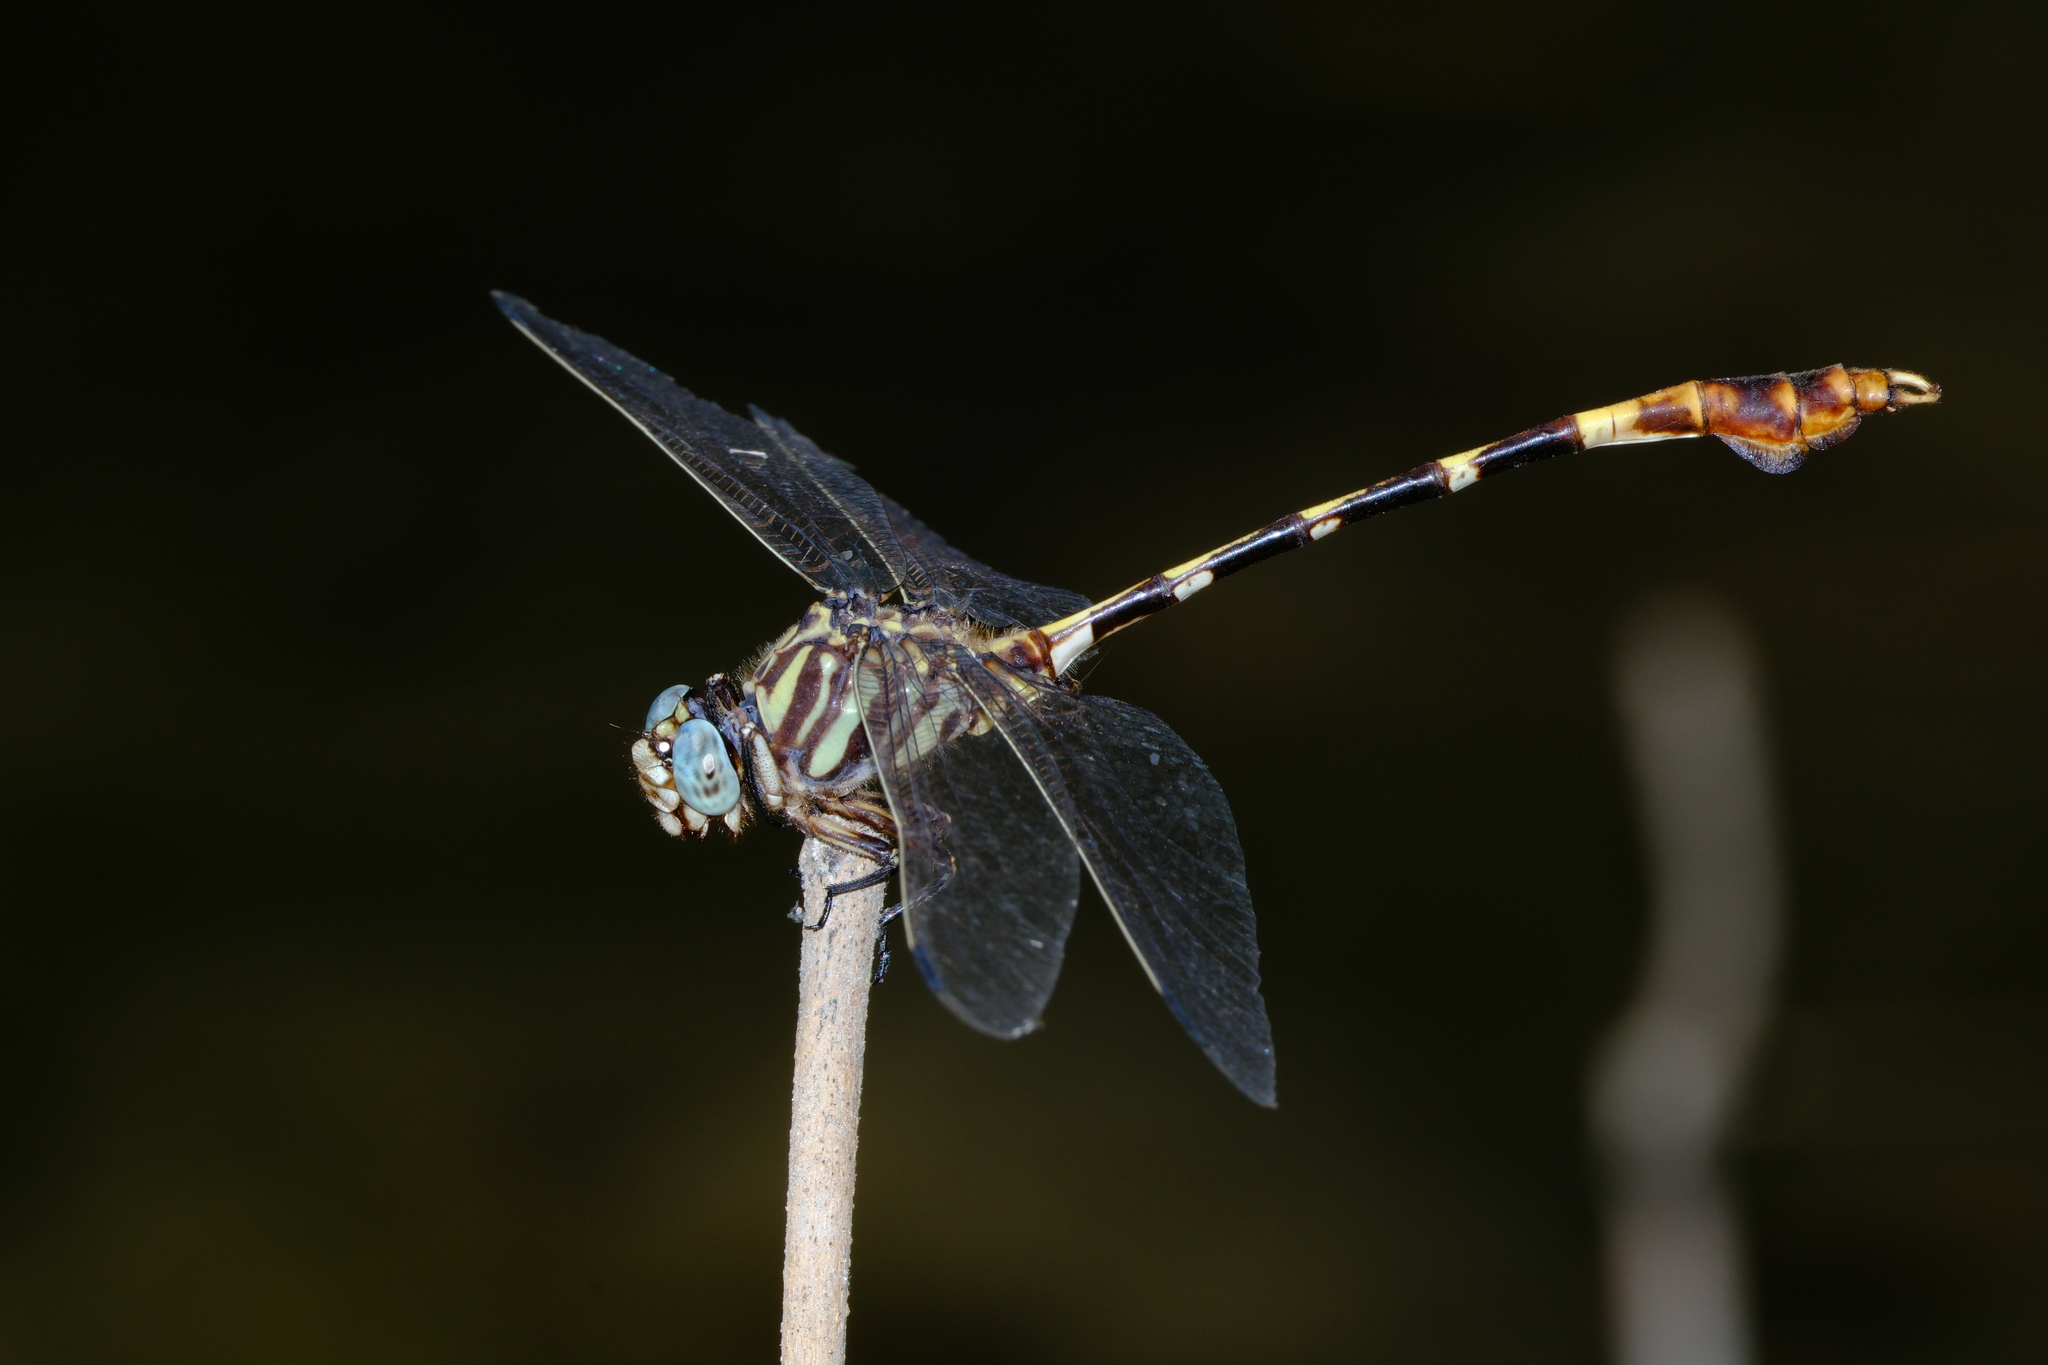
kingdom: Animalia
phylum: Arthropoda
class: Insecta
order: Odonata
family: Gomphidae
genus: Phyllogomphoides
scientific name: Phyllogomphoides albrighti
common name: Five-striped leaftail
